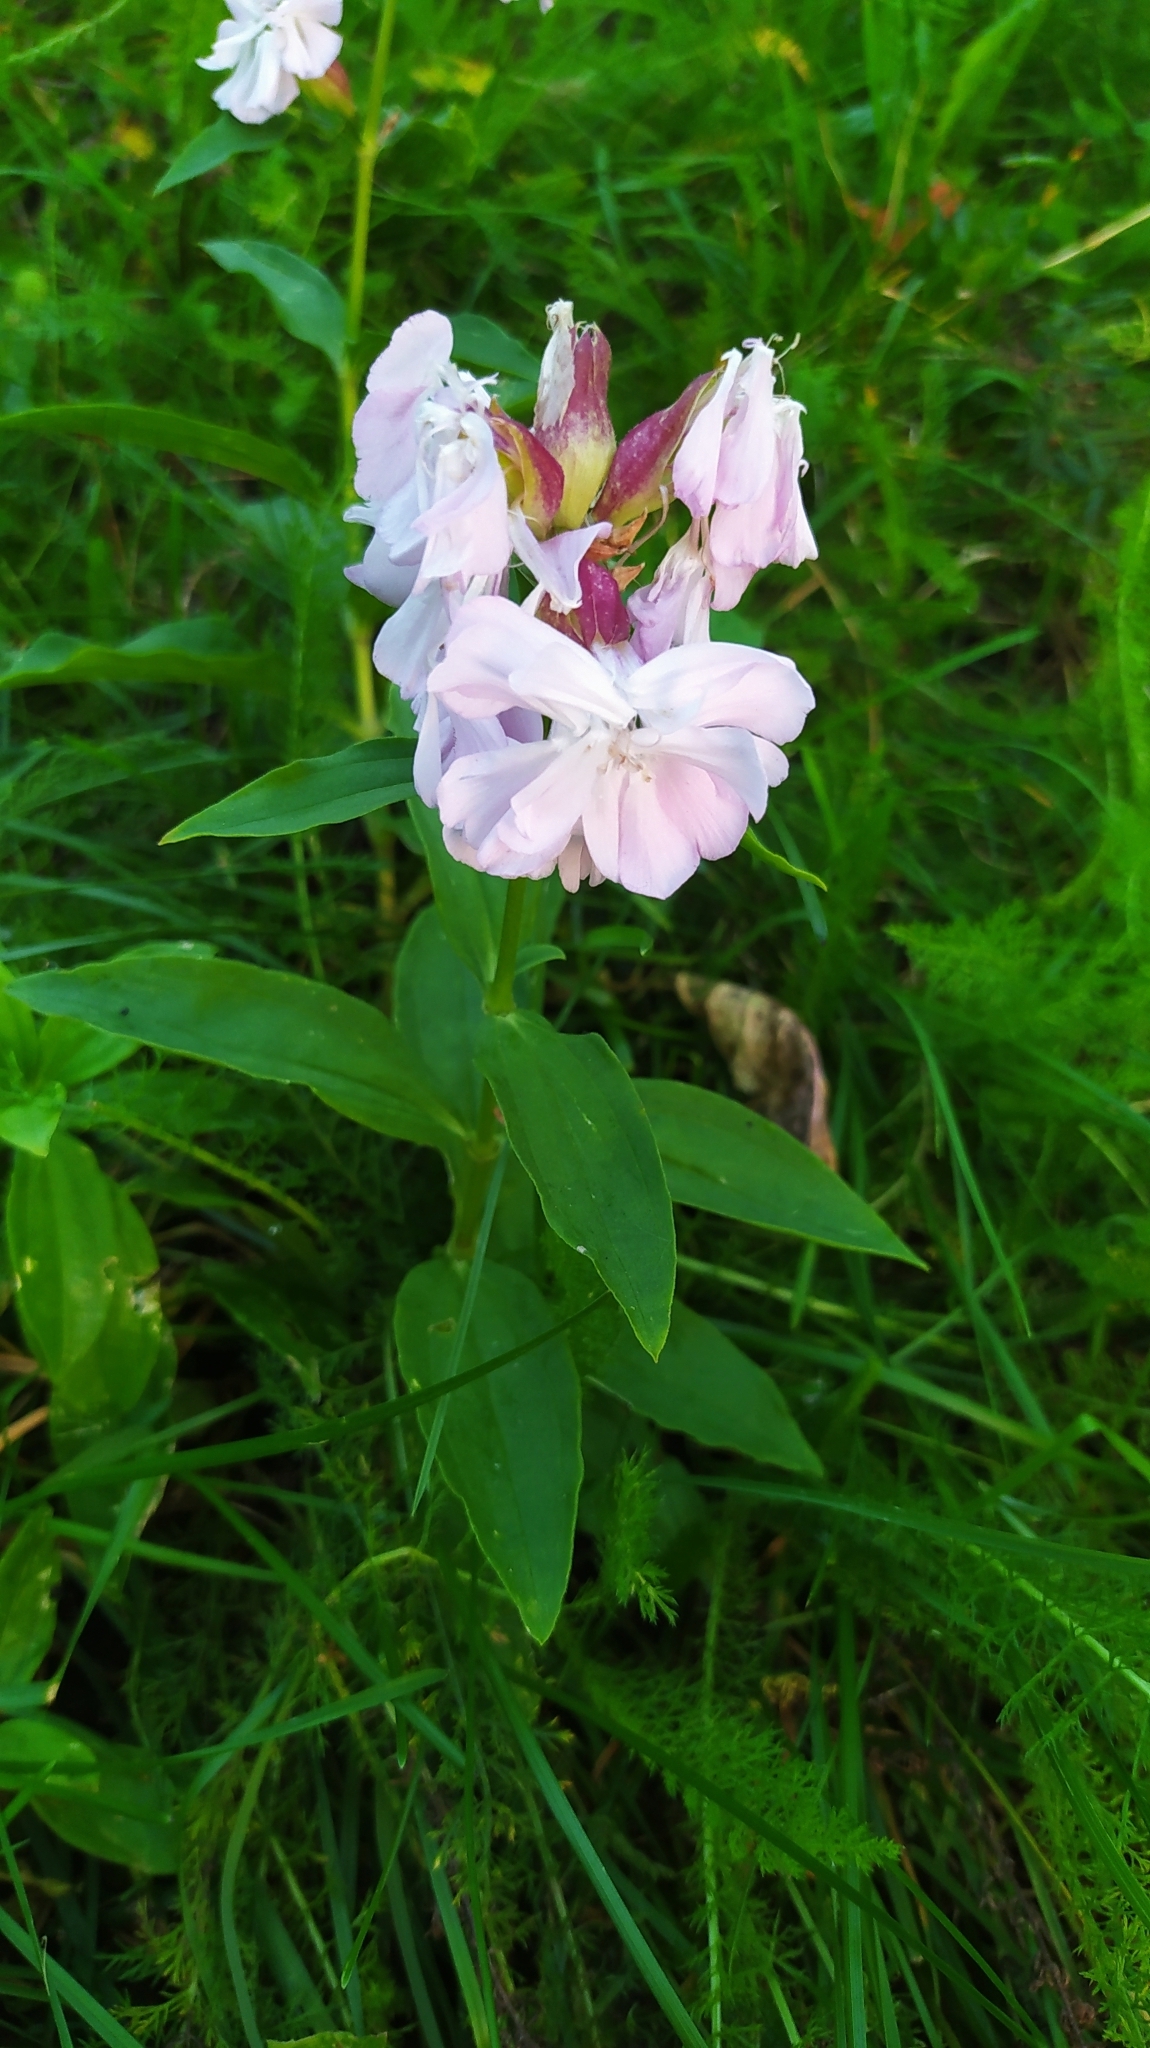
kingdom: Plantae
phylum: Tracheophyta
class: Magnoliopsida
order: Caryophyllales
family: Caryophyllaceae
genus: Saponaria
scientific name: Saponaria officinalis
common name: Soapwort
